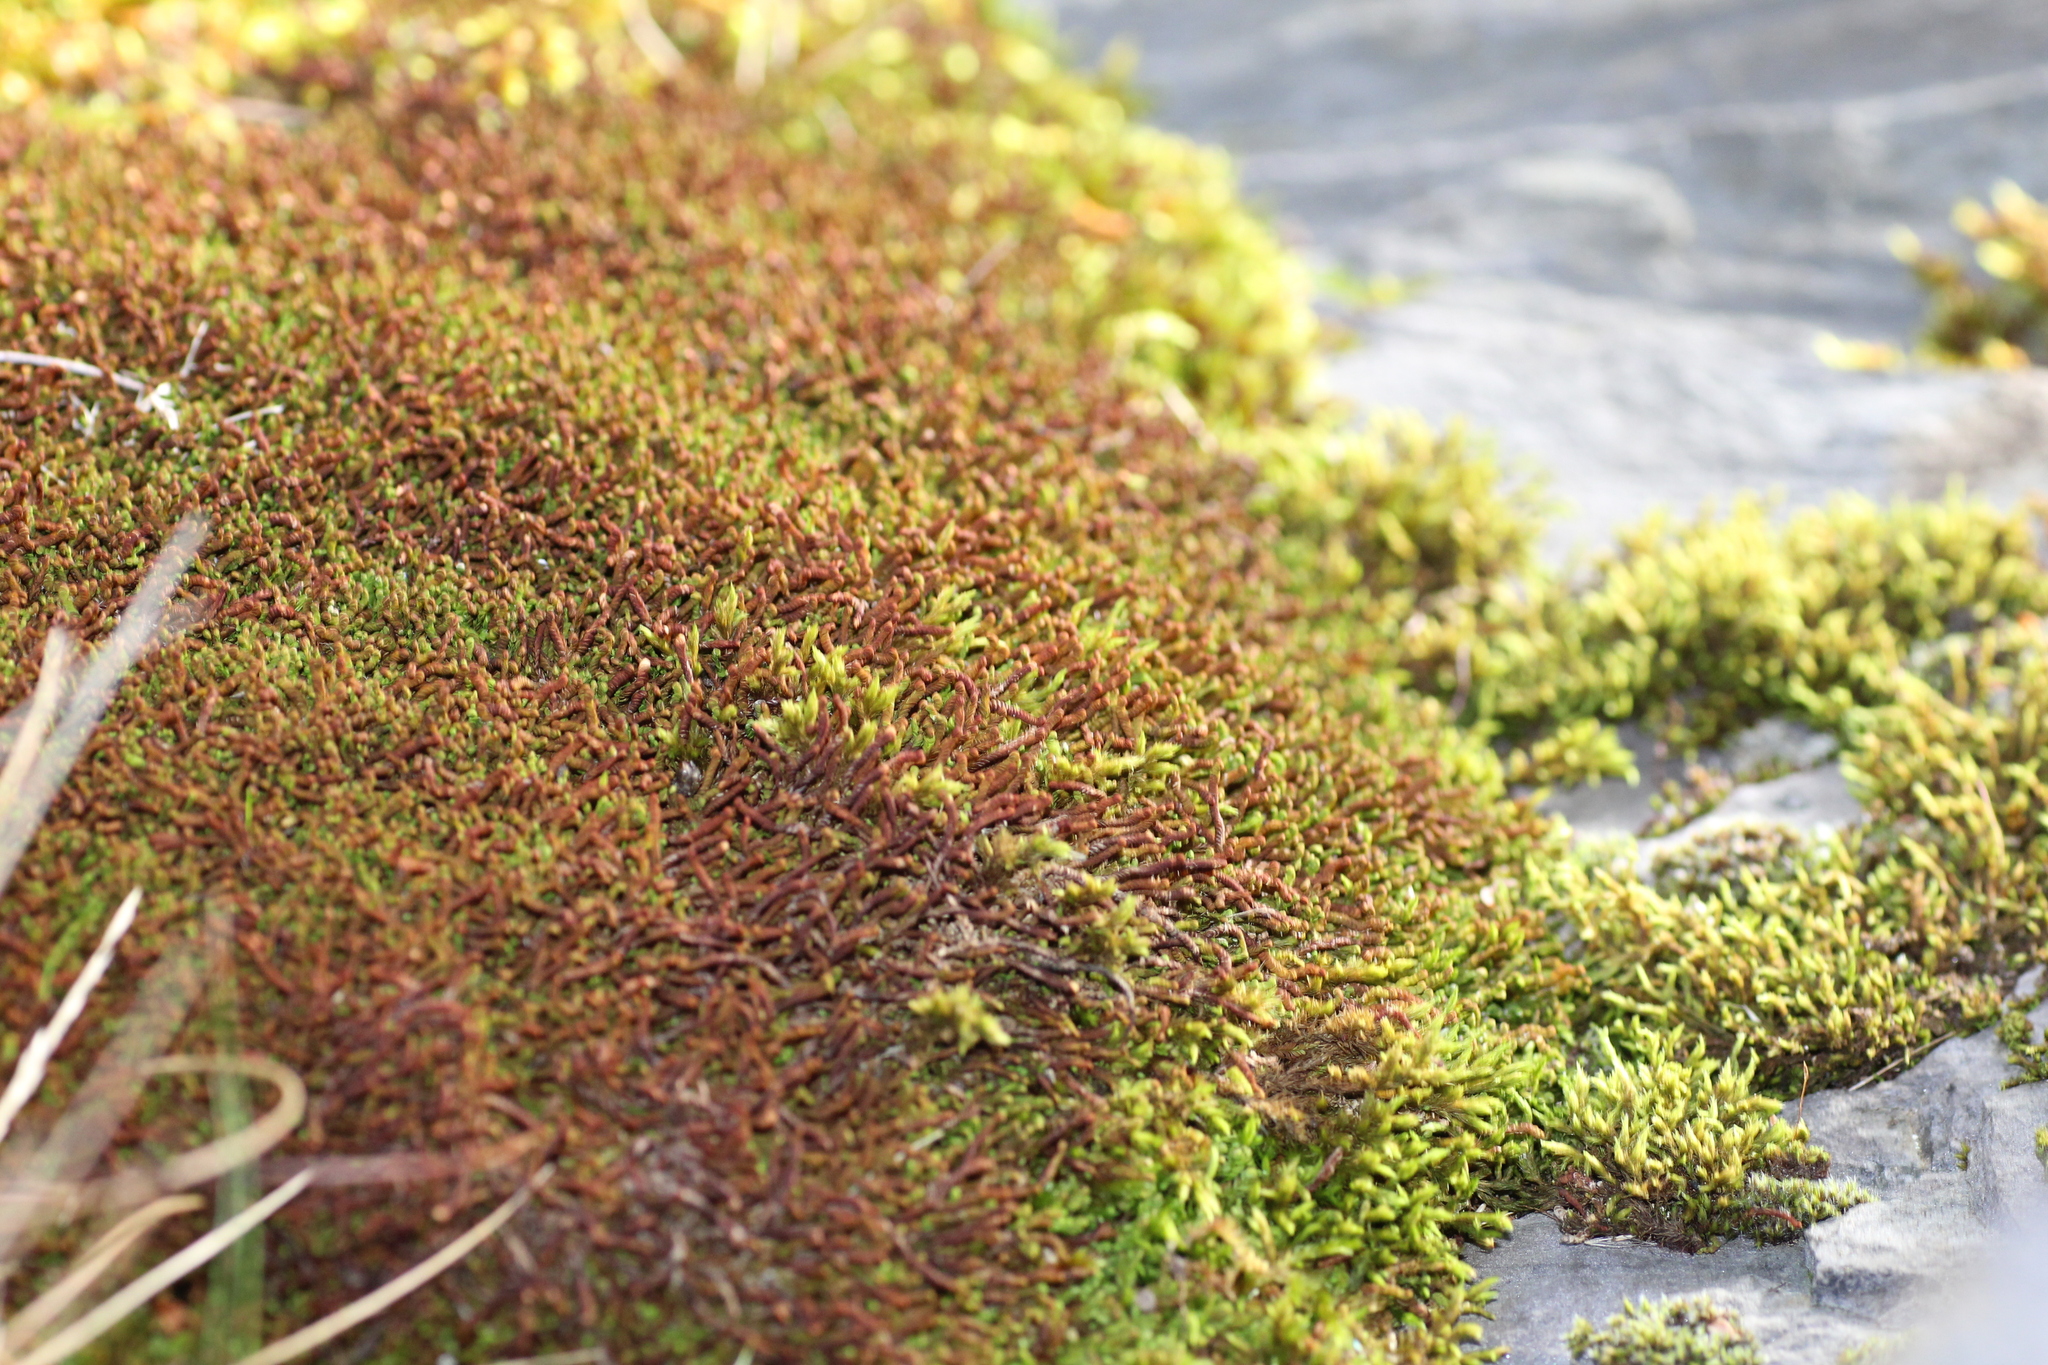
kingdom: Plantae
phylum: Marchantiophyta
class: Jungermanniopsida
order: Jungermanniales
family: Adelanthaceae
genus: Syzygiella
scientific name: Syzygiella colorata
